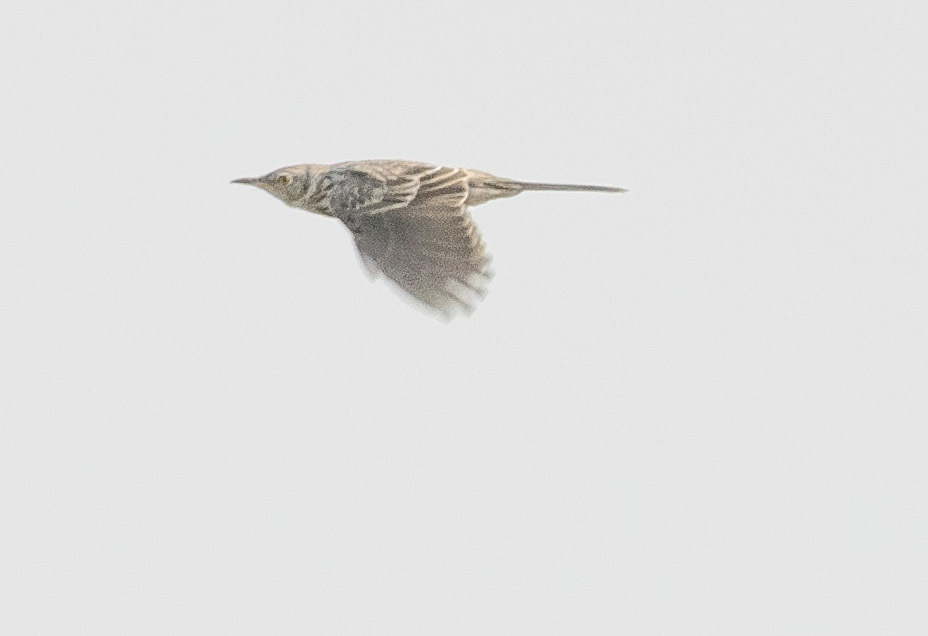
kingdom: Animalia
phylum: Chordata
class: Aves
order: Passeriformes
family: Mimidae
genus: Oreoscoptes
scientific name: Oreoscoptes montanus
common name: Sage thrasher
